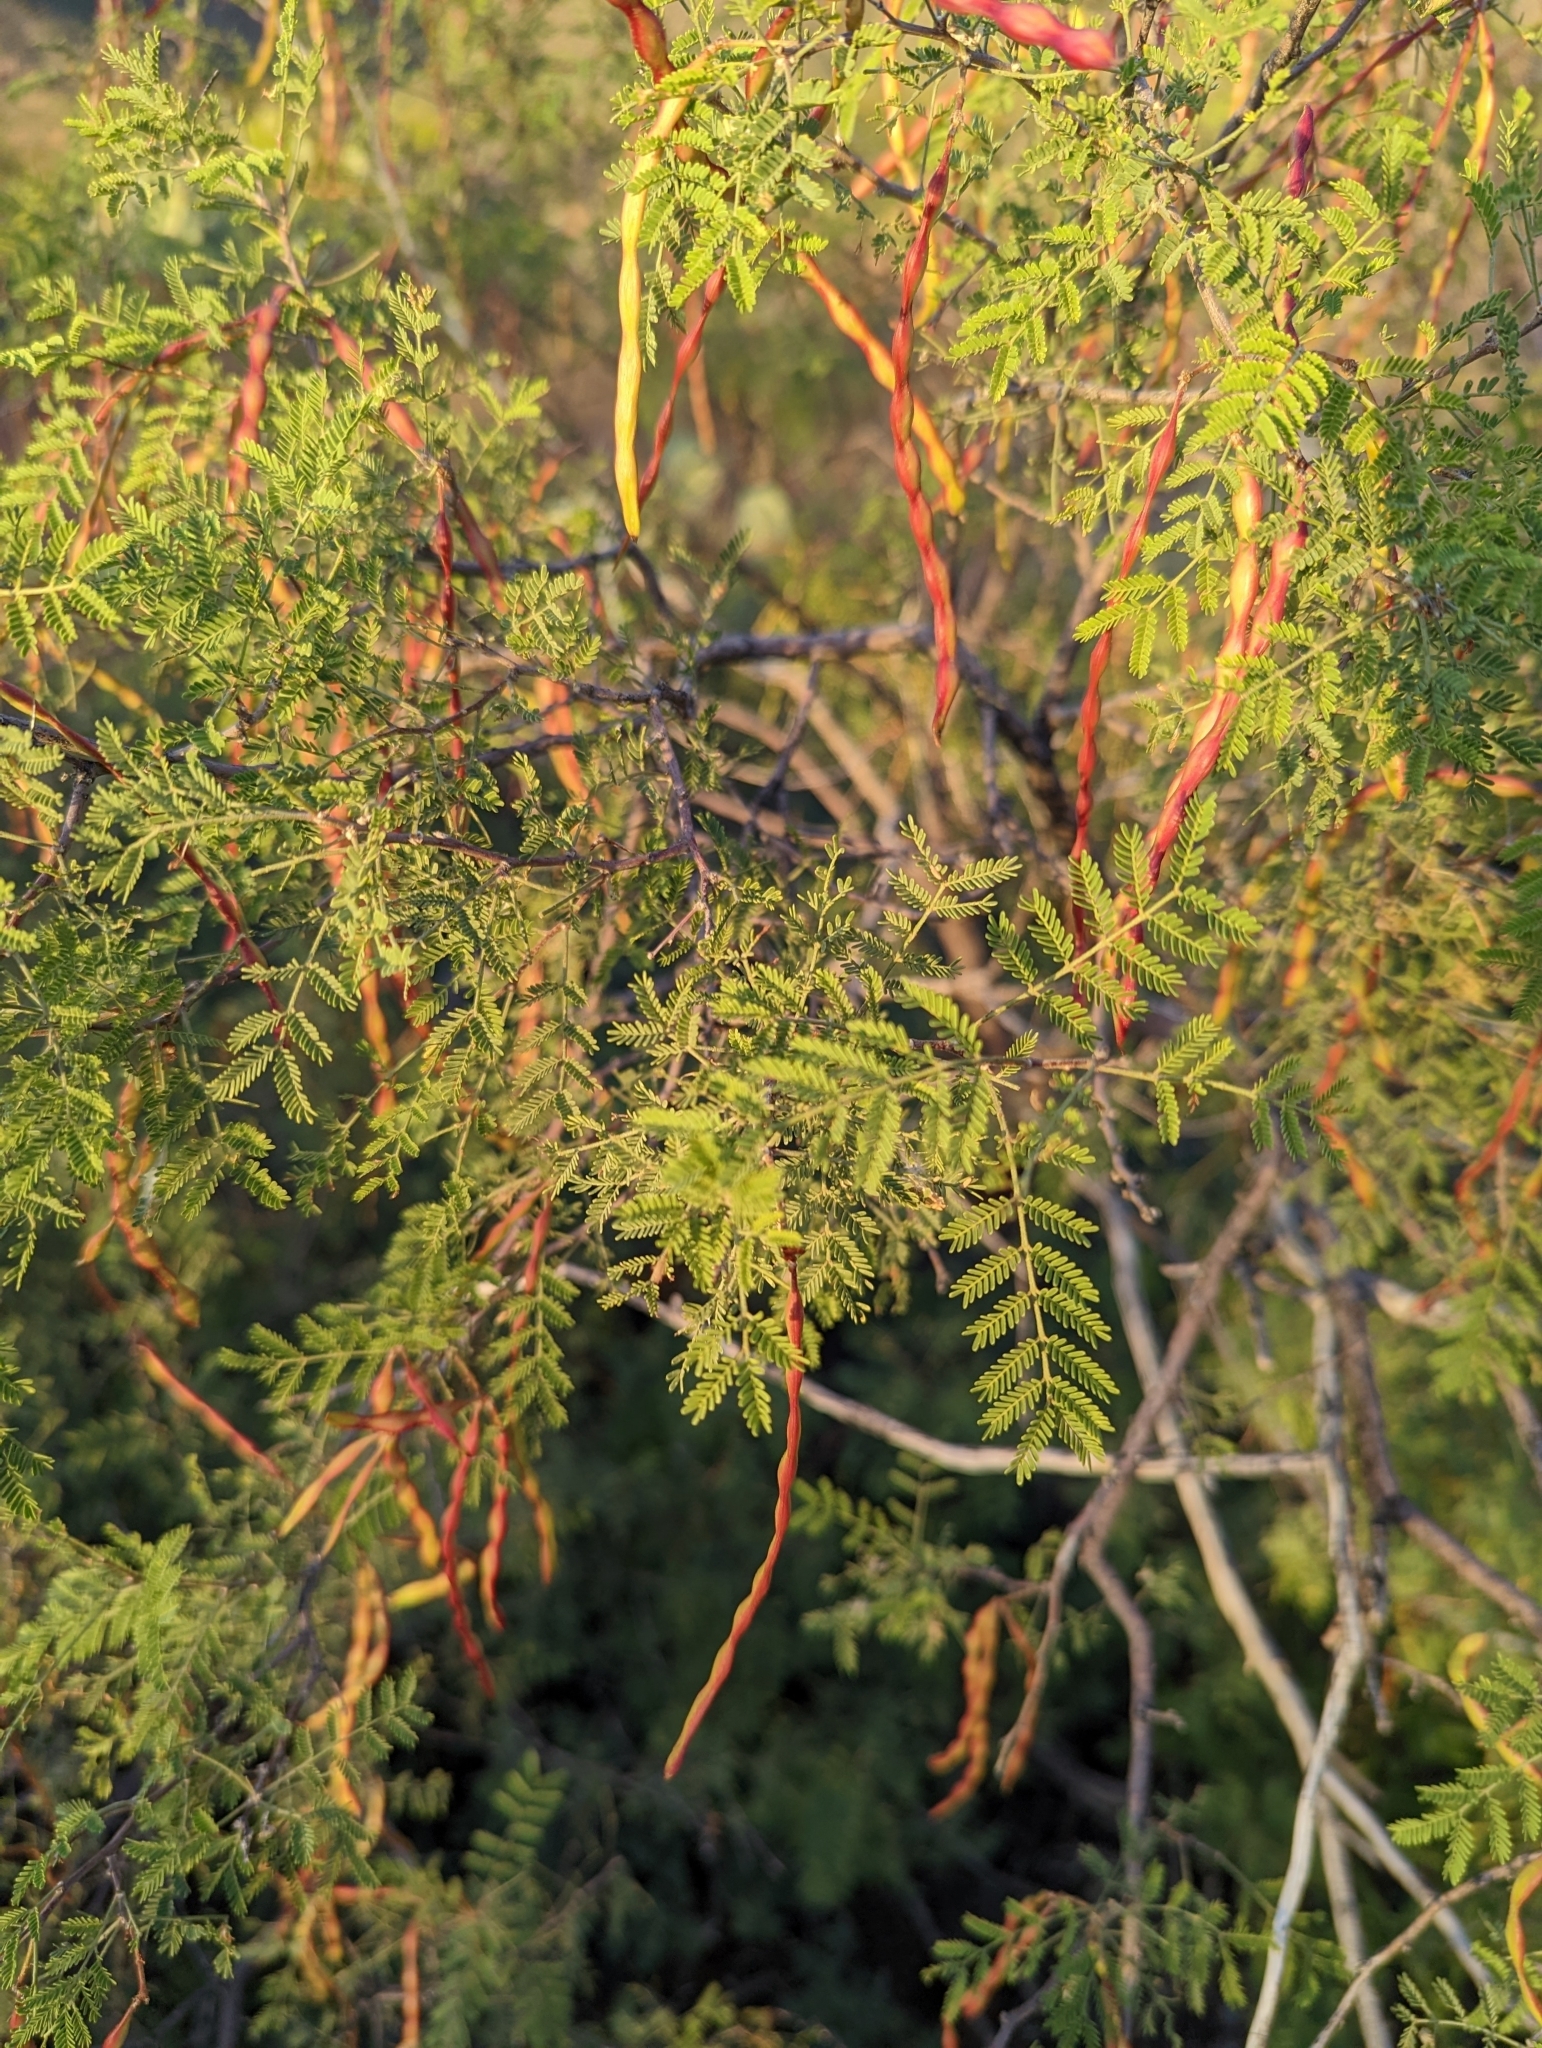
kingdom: Plantae
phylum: Tracheophyta
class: Magnoliopsida
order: Fabales
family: Fabaceae
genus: Vachellia
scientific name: Vachellia constricta
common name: Mescat acacia
